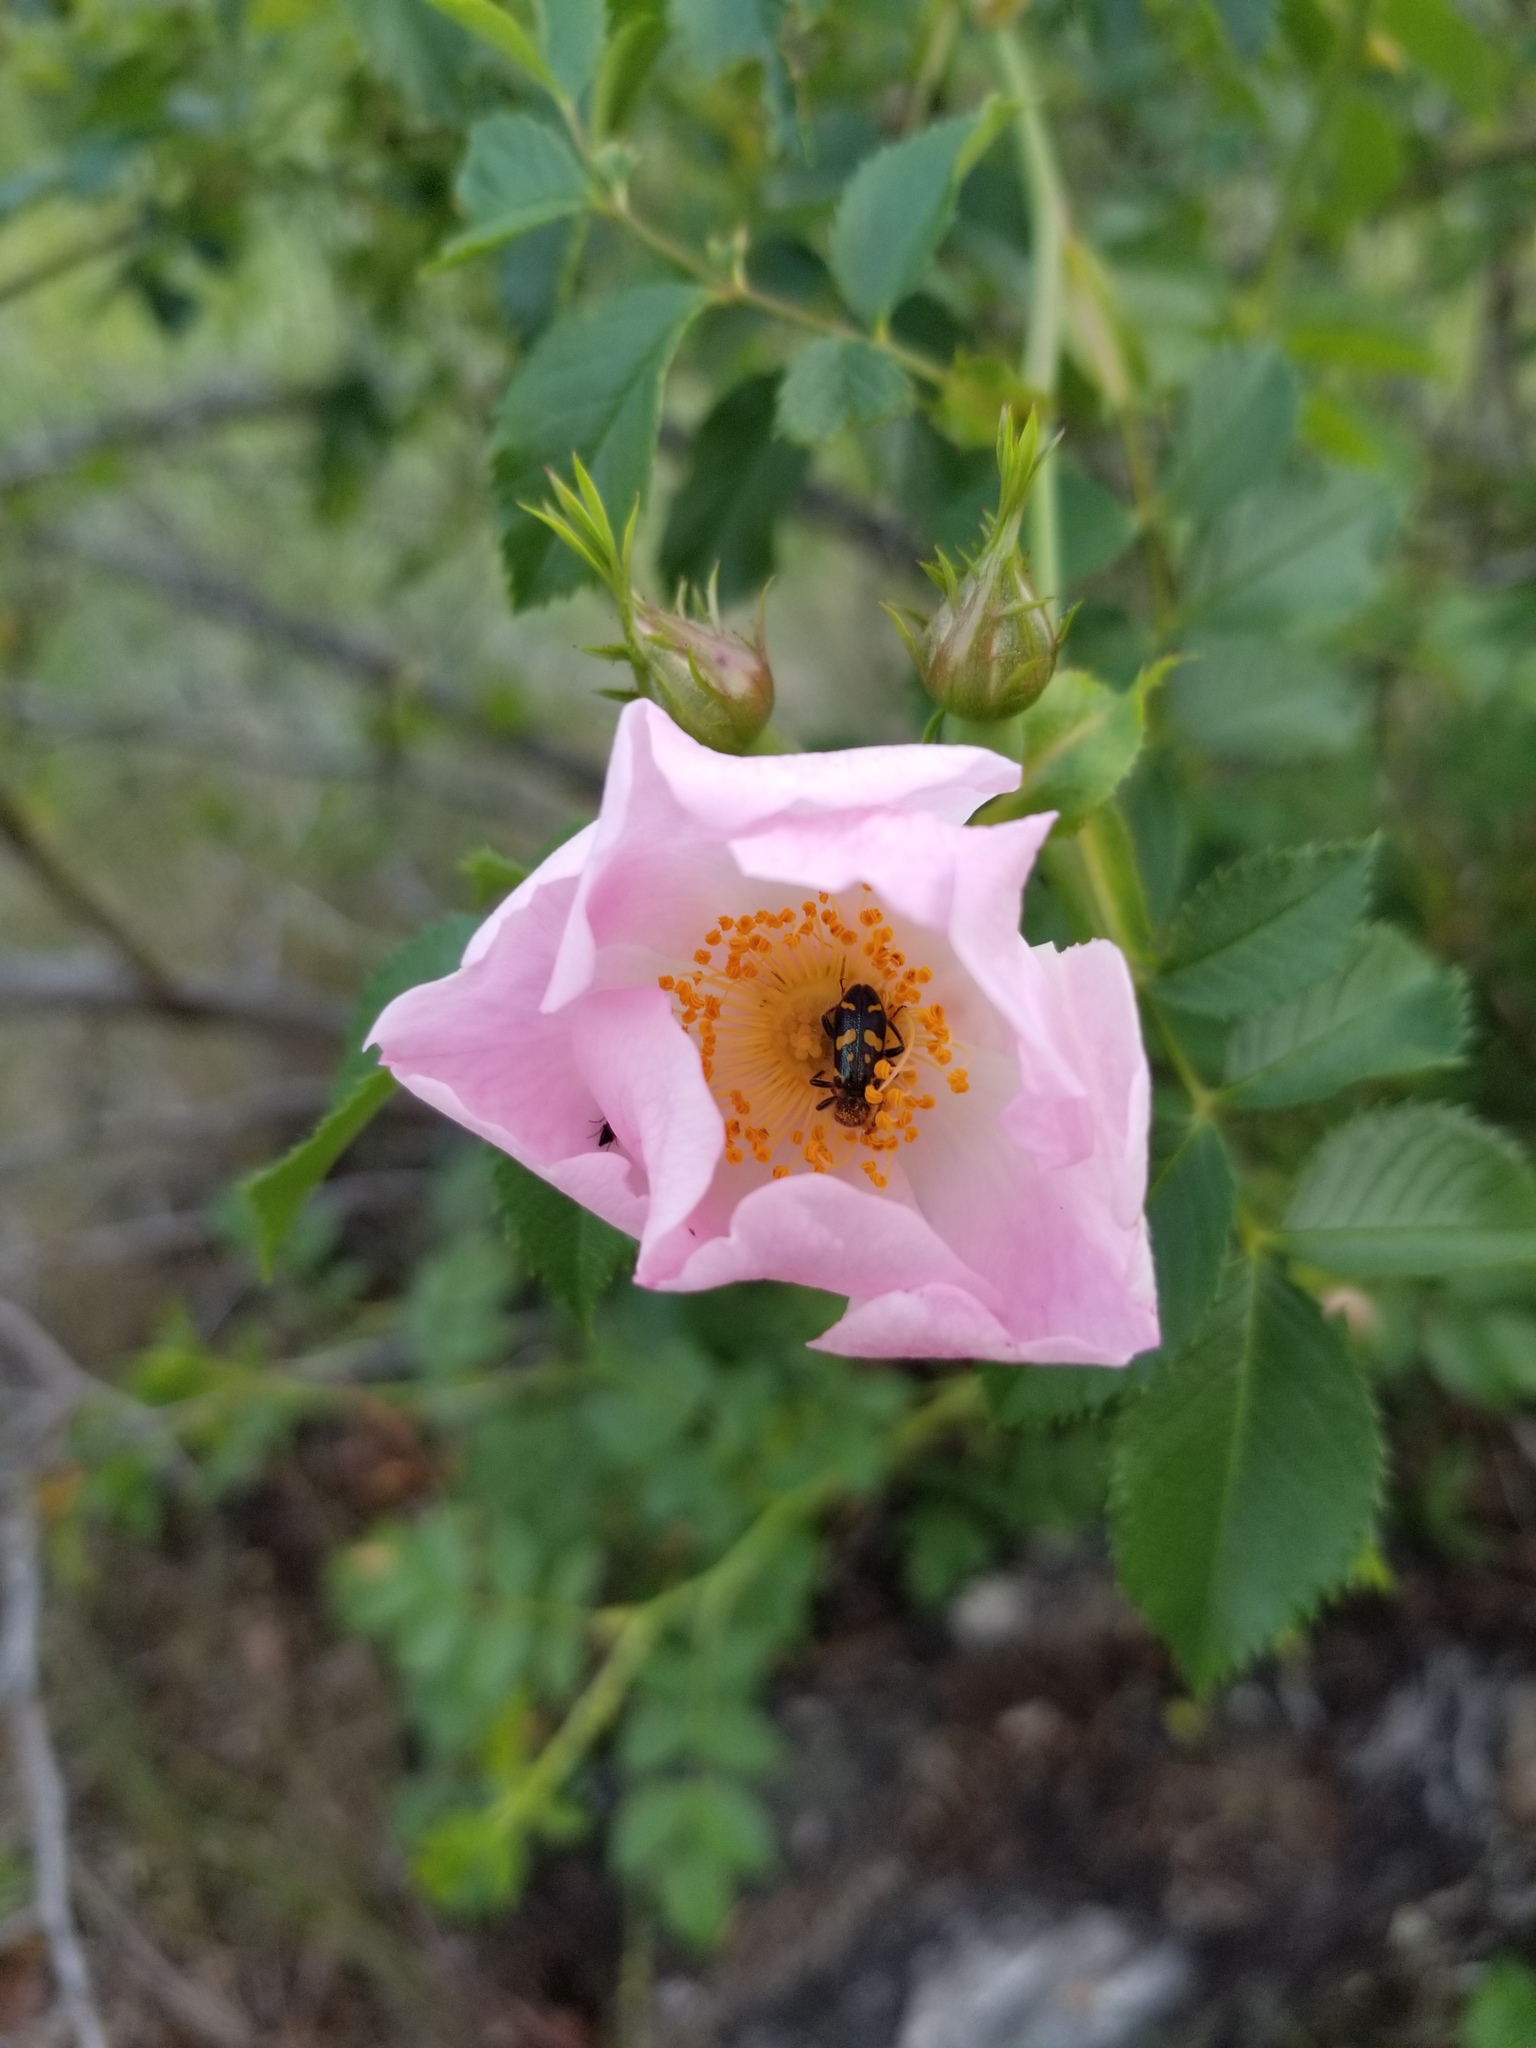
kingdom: Animalia
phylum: Arthropoda
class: Insecta
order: Coleoptera
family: Cleridae
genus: Trichodes
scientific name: Trichodes ornatus
